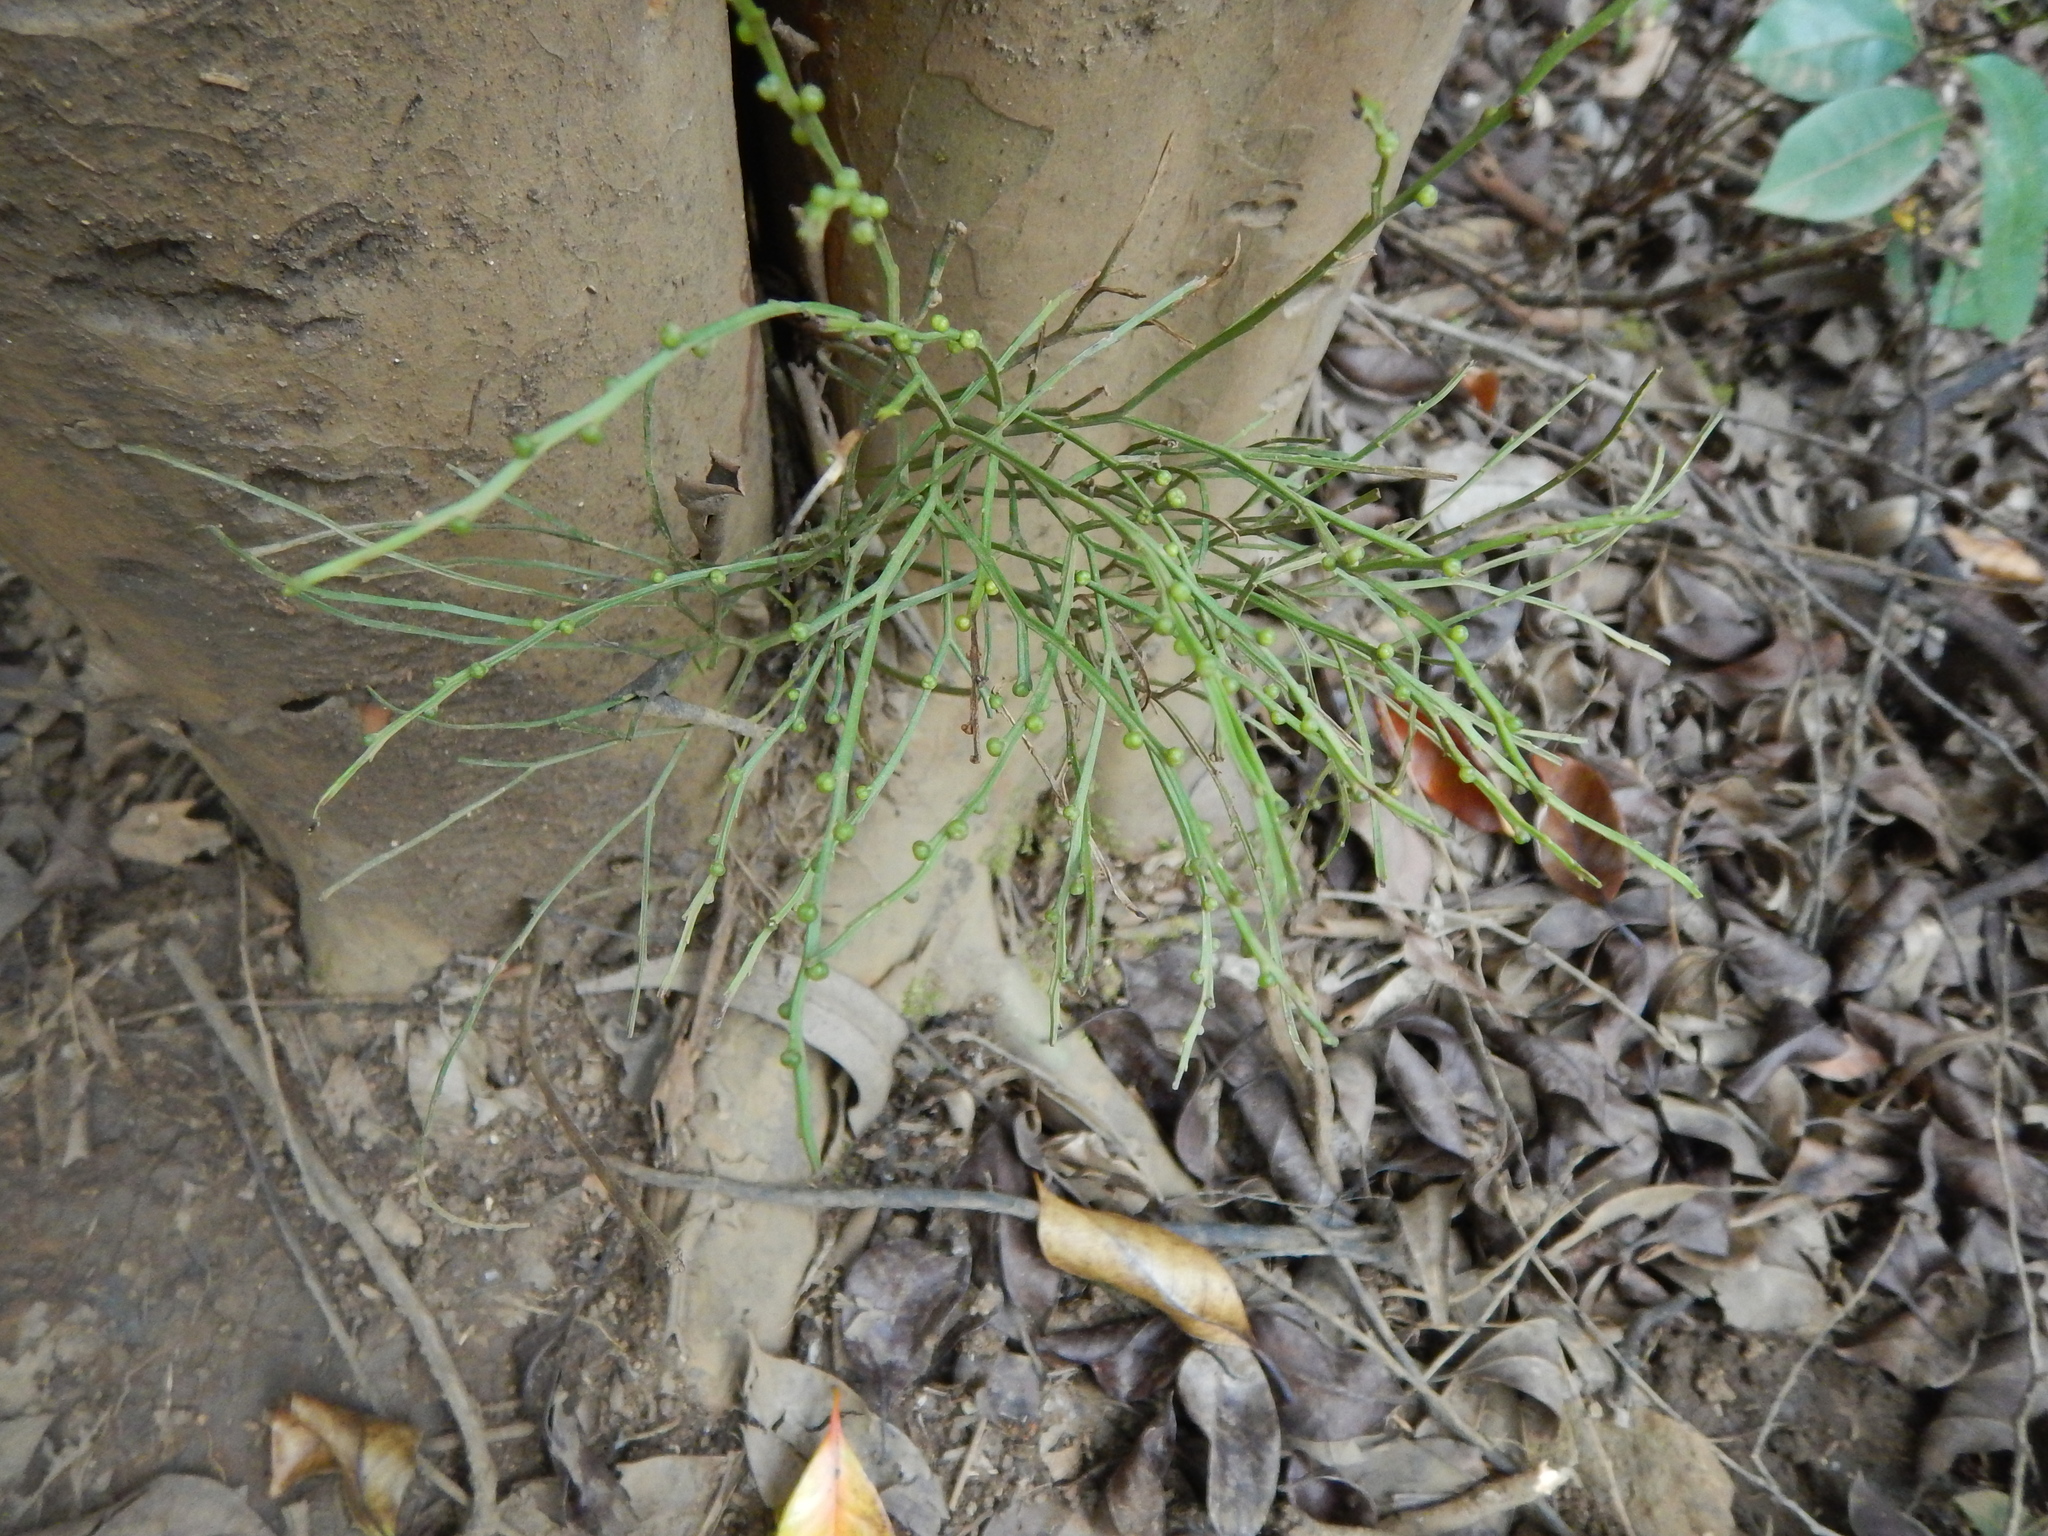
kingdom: Plantae
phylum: Tracheophyta
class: Polypodiopsida
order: Psilotales
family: Psilotaceae
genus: Psilotum
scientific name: Psilotum nudum
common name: Skeleton fork fern
